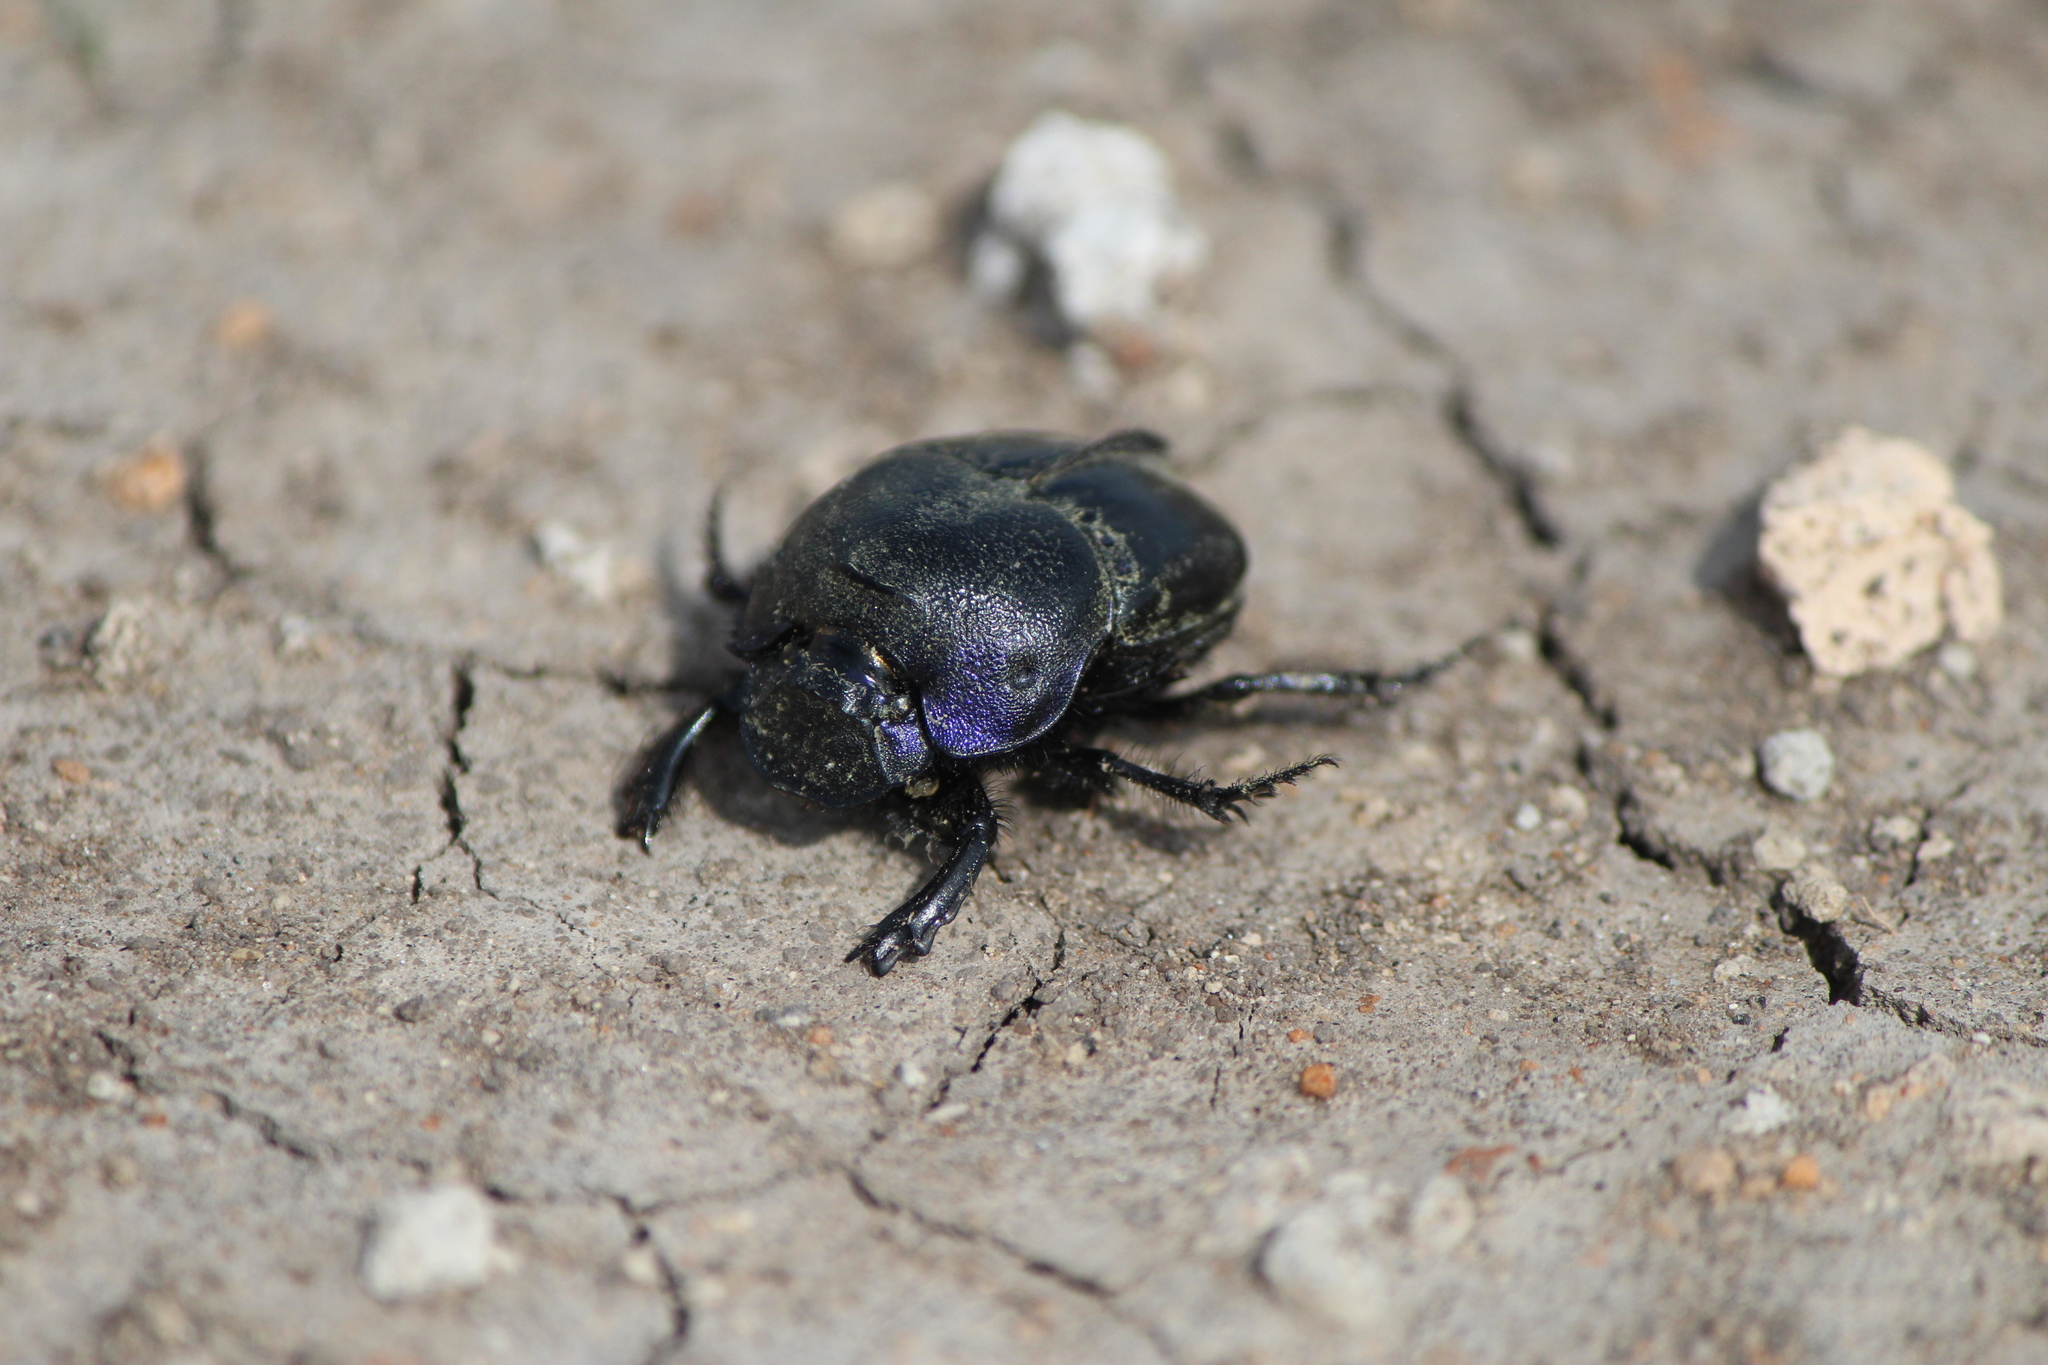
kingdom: Animalia
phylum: Arthropoda
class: Insecta
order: Coleoptera
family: Scarabaeidae
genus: Phanaeus
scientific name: Phanaeus quadridens
